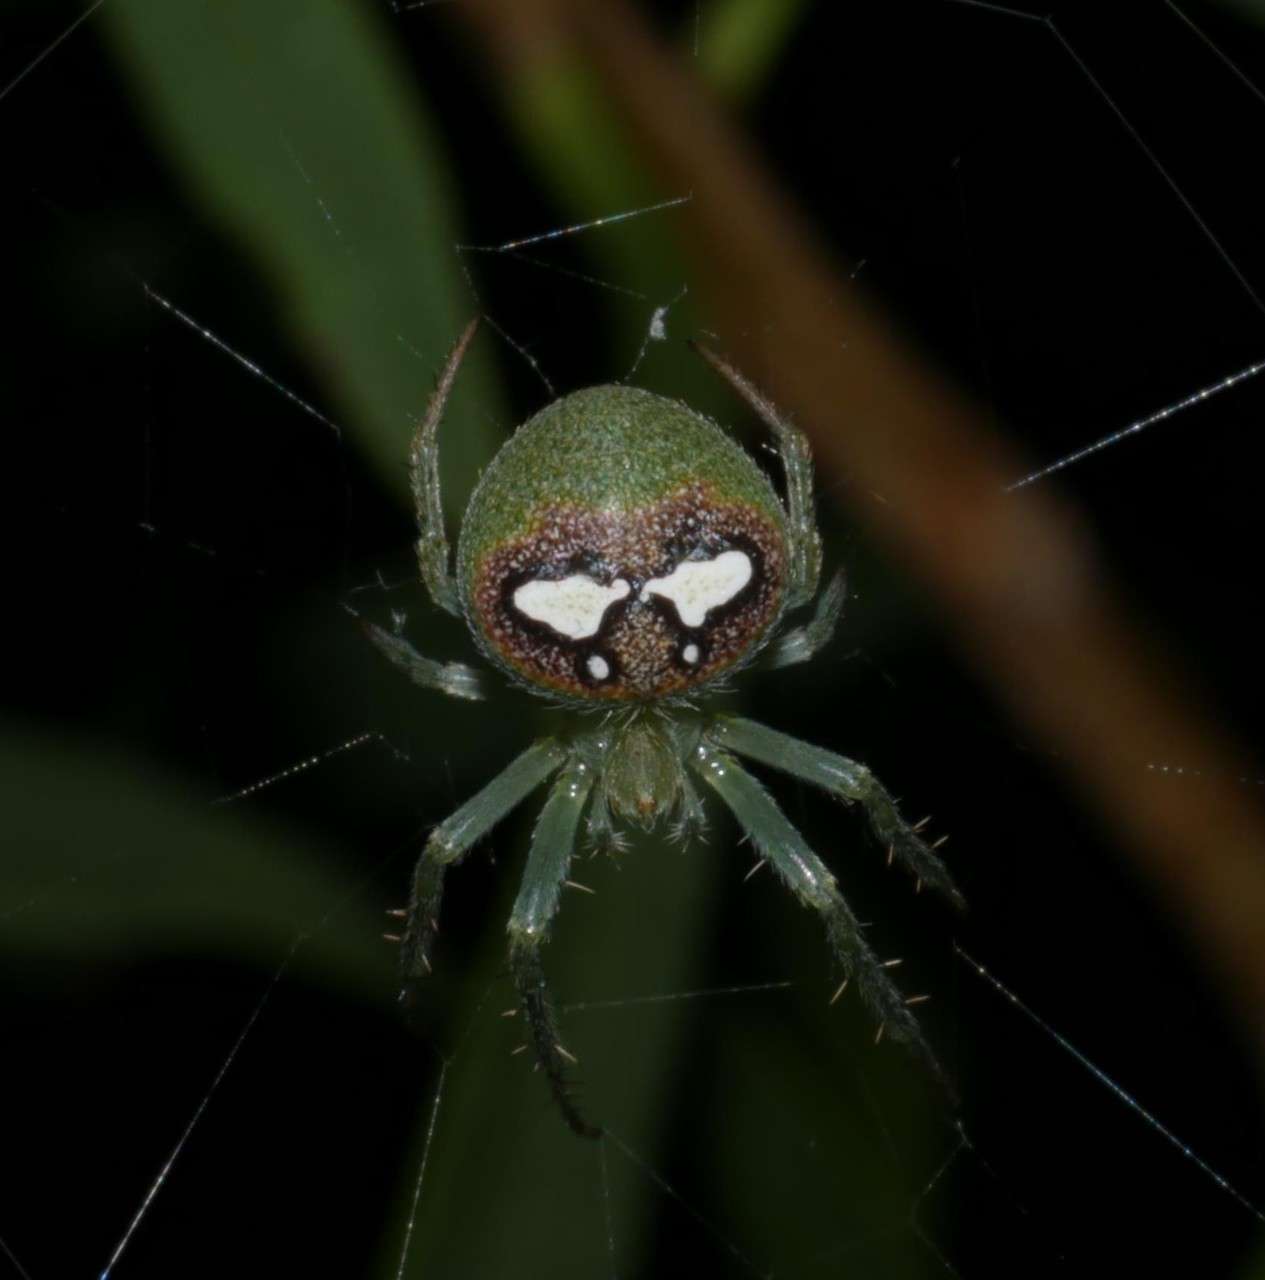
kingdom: Animalia
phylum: Arthropoda
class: Arachnida
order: Araneae
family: Araneidae
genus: Araneus
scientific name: Araneus circulissparsus
